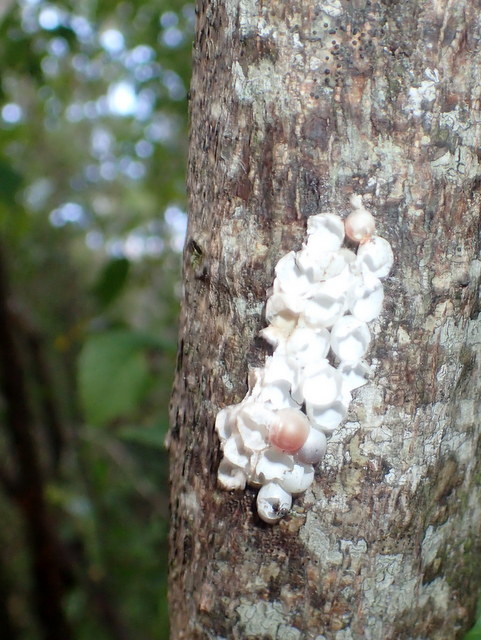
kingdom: Animalia
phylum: Mollusca
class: Gastropoda
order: Architaenioglossa
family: Ampullariidae
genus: Pomacea
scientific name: Pomacea paludosa
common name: Florida applesnail
